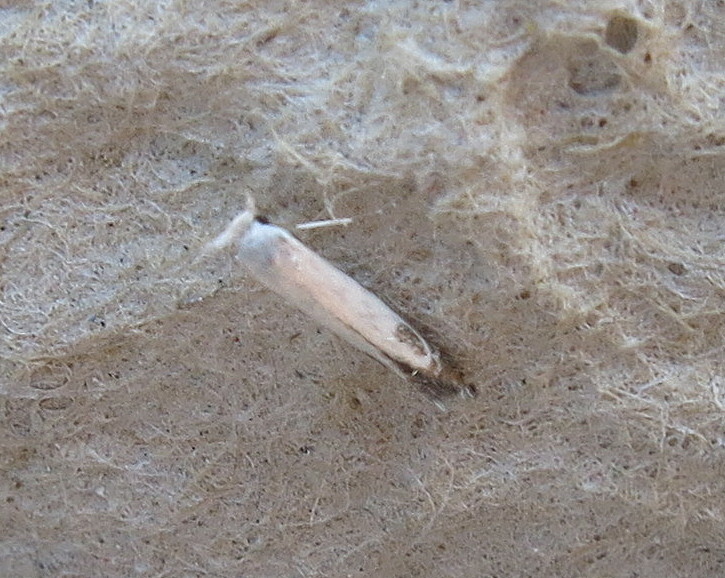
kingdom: Animalia
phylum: Arthropoda
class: Insecta
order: Lepidoptera
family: Lyonetiidae
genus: Lyonetia
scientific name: Lyonetia clerkella
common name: Apple leaf miner
